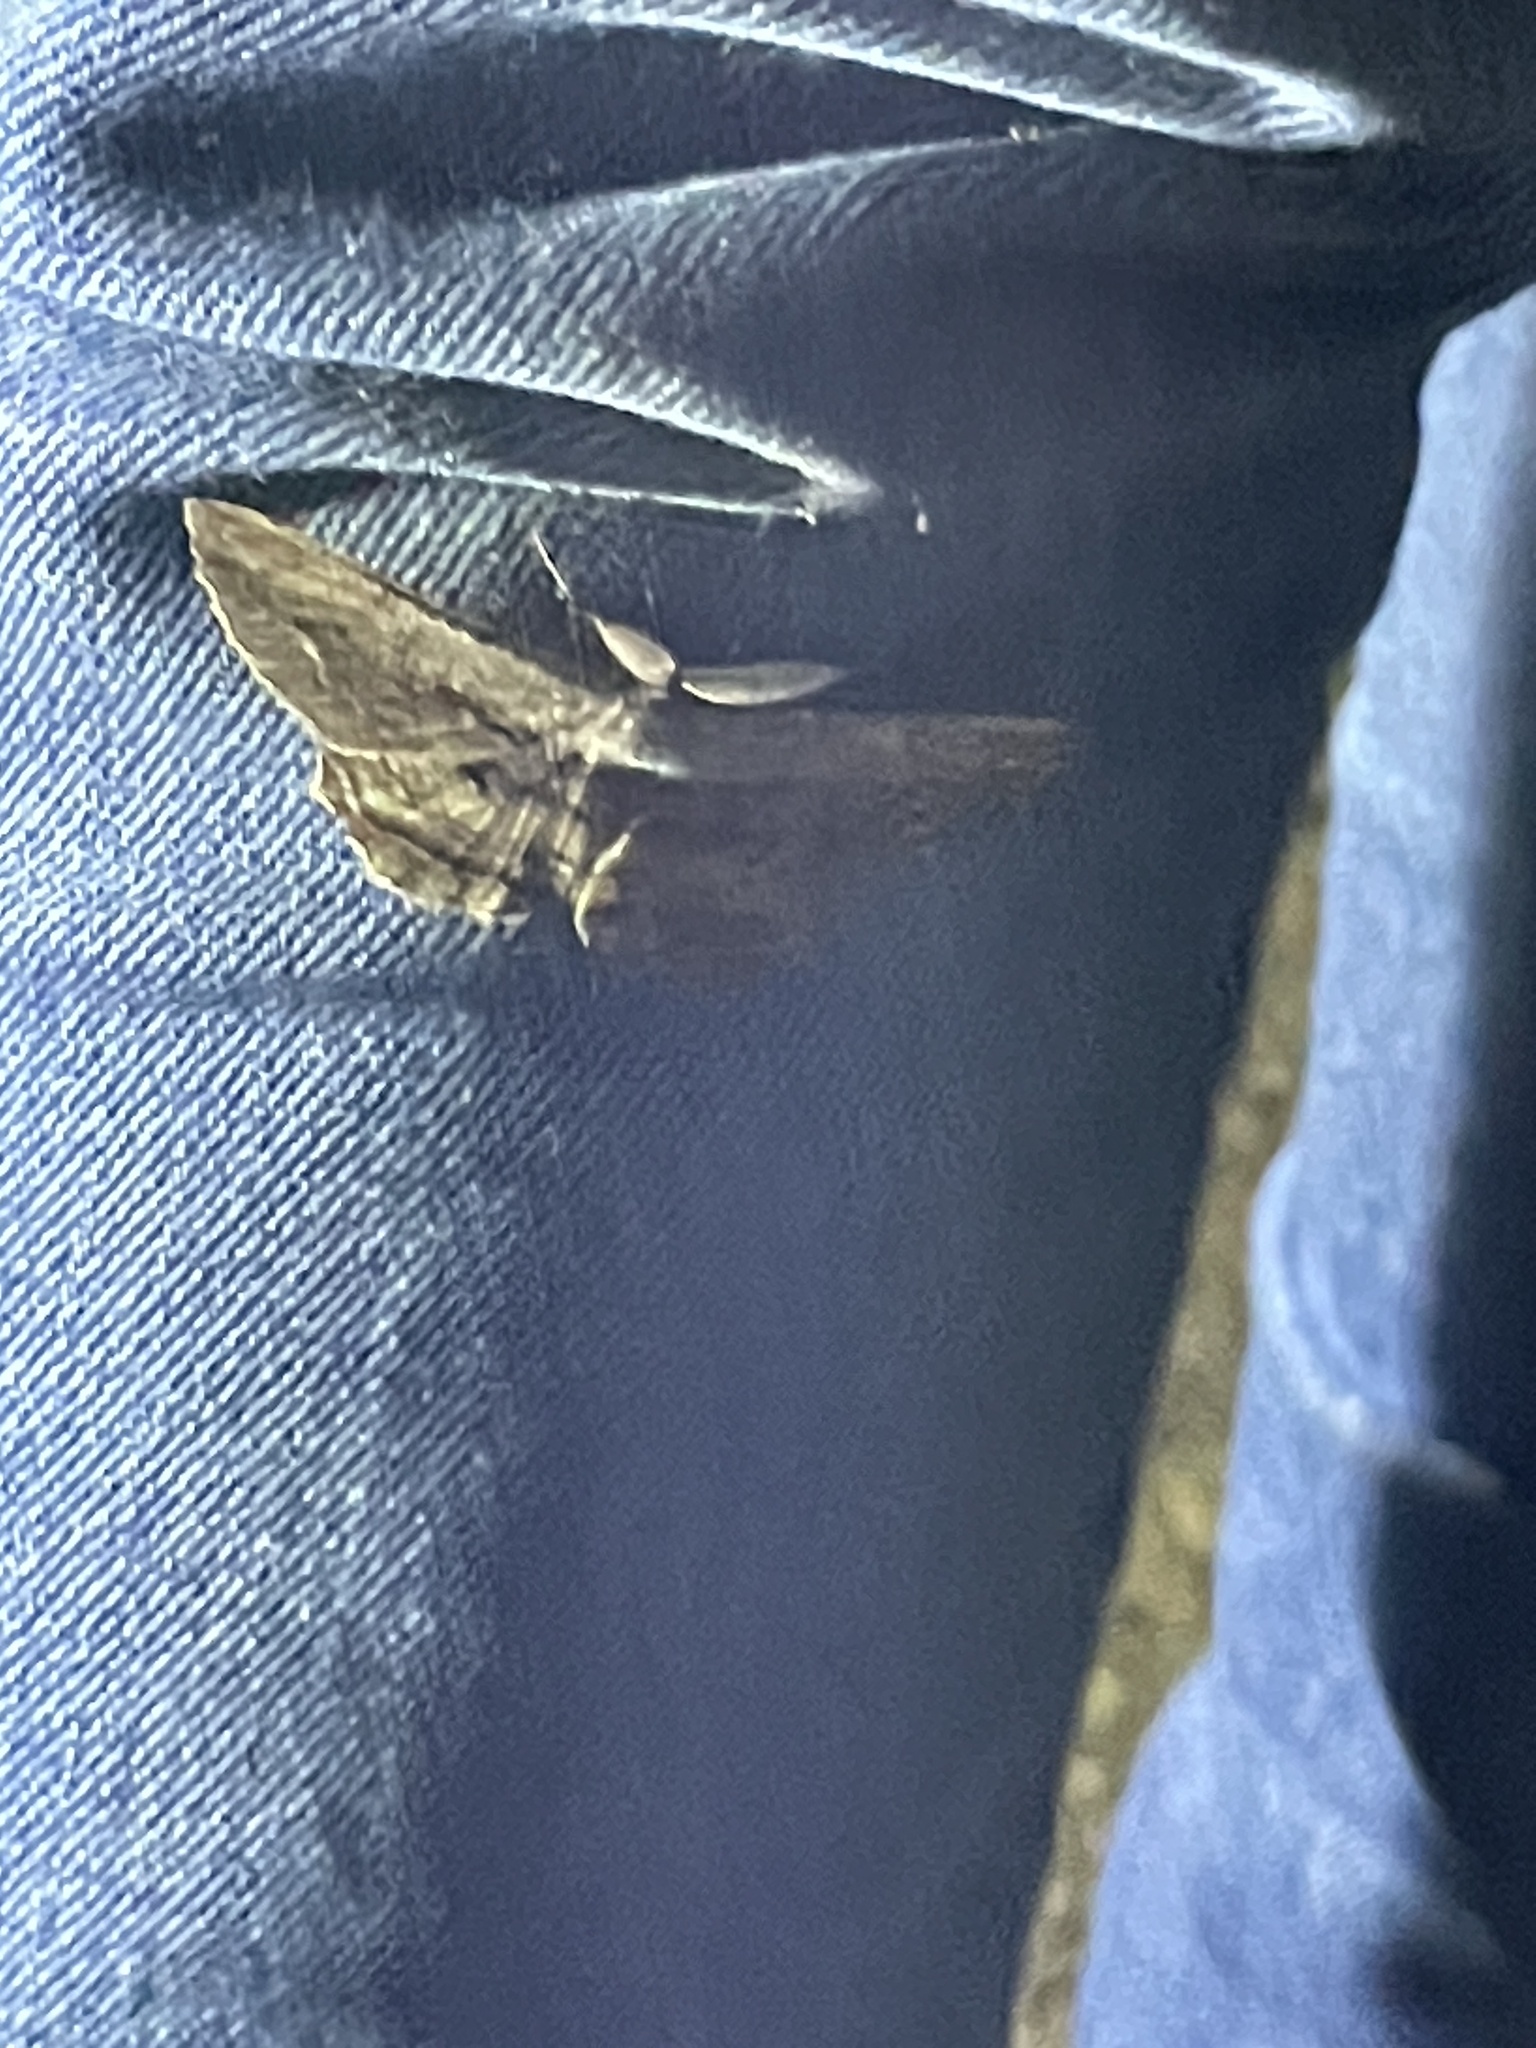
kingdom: Animalia
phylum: Arthropoda
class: Insecta
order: Lepidoptera
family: Geometridae
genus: Scioglyptis
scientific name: Scioglyptis lyciaria
